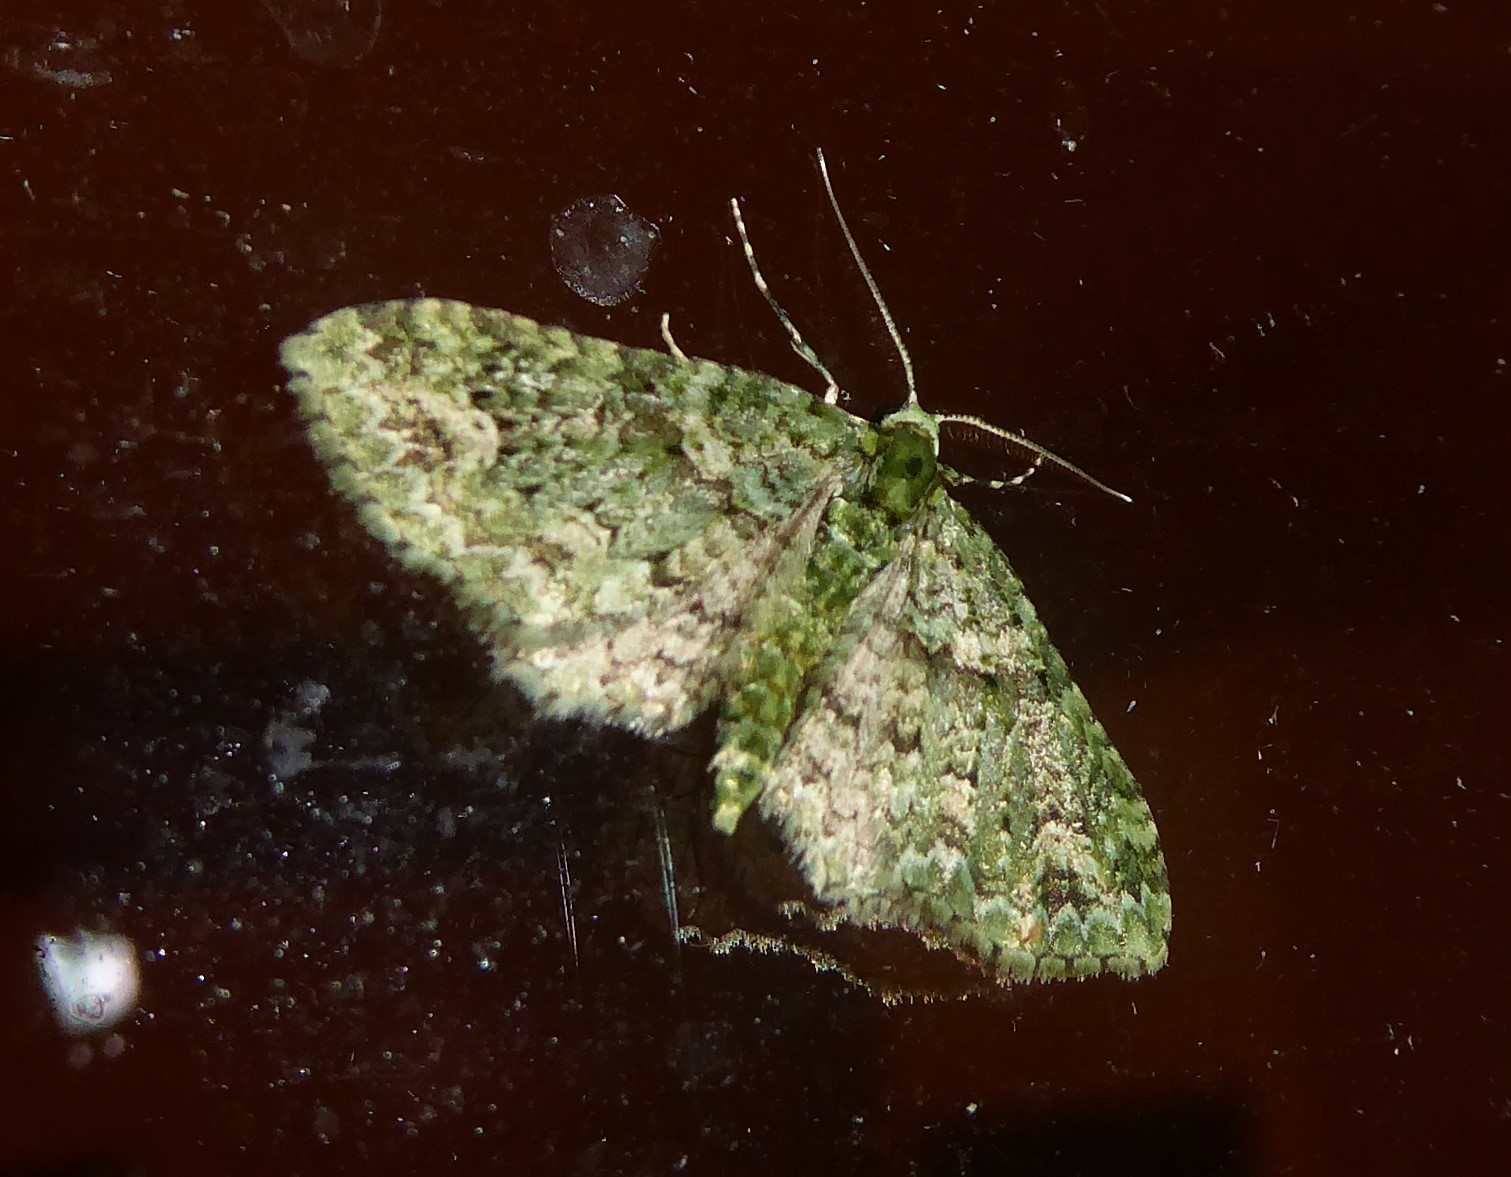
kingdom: Animalia
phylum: Arthropoda
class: Insecta
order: Lepidoptera
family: Geometridae
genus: Pasiphila
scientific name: Pasiphila muscosata
